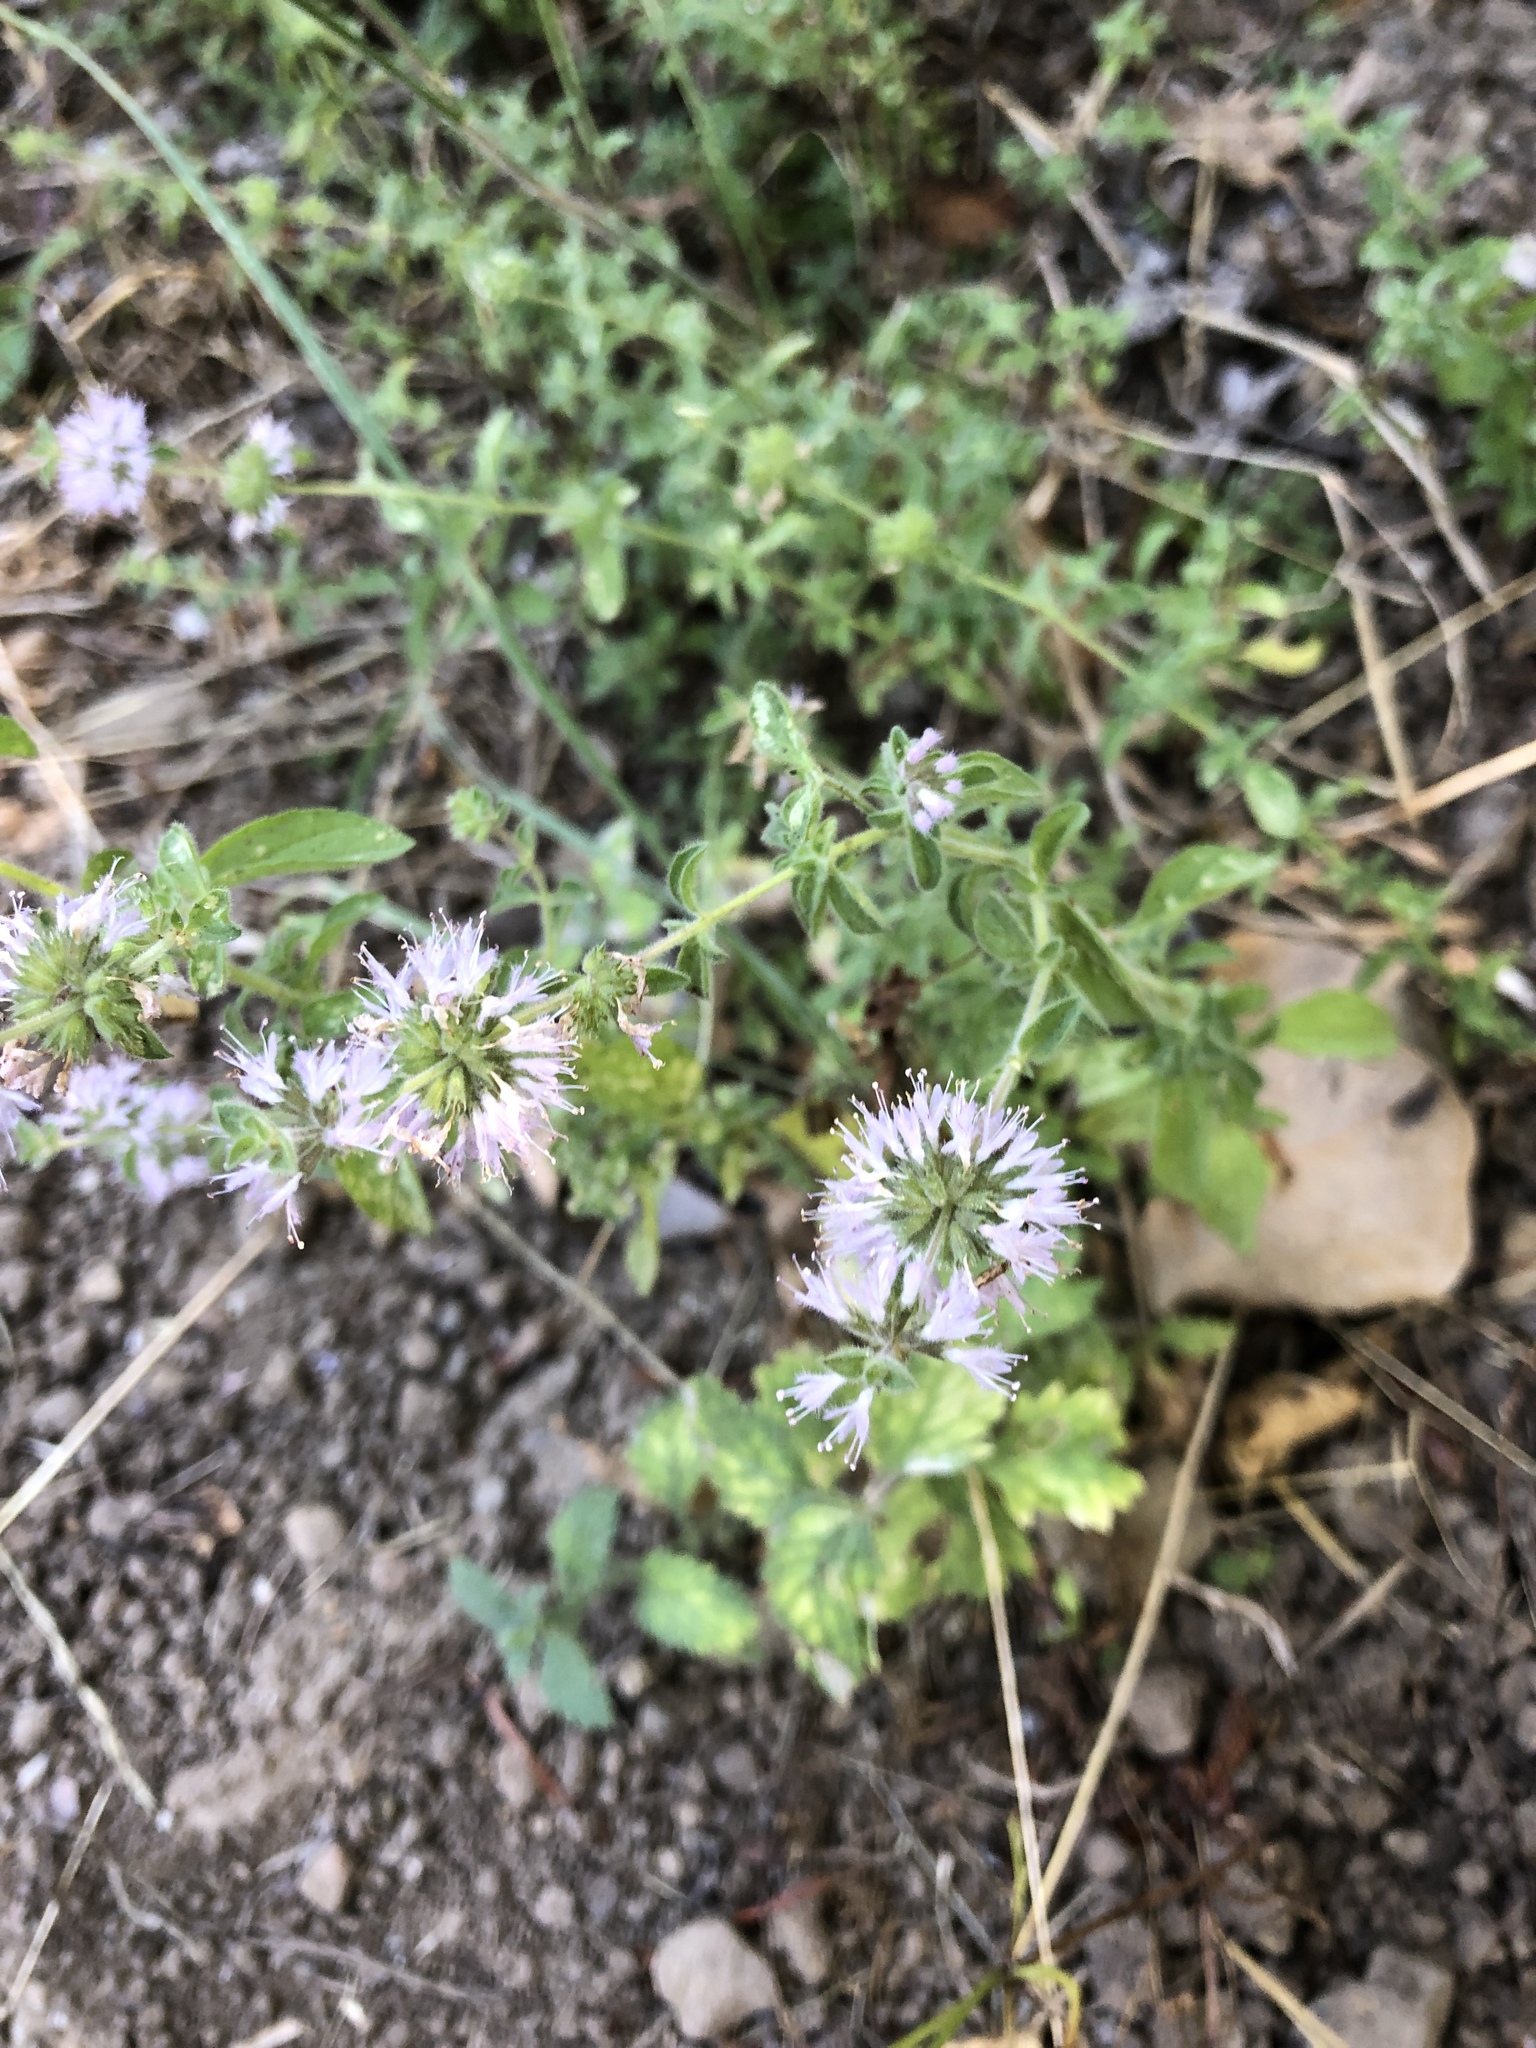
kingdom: Plantae
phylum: Tracheophyta
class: Magnoliopsida
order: Lamiales
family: Lamiaceae
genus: Mentha
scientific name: Mentha pulegium
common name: Pennyroyal
